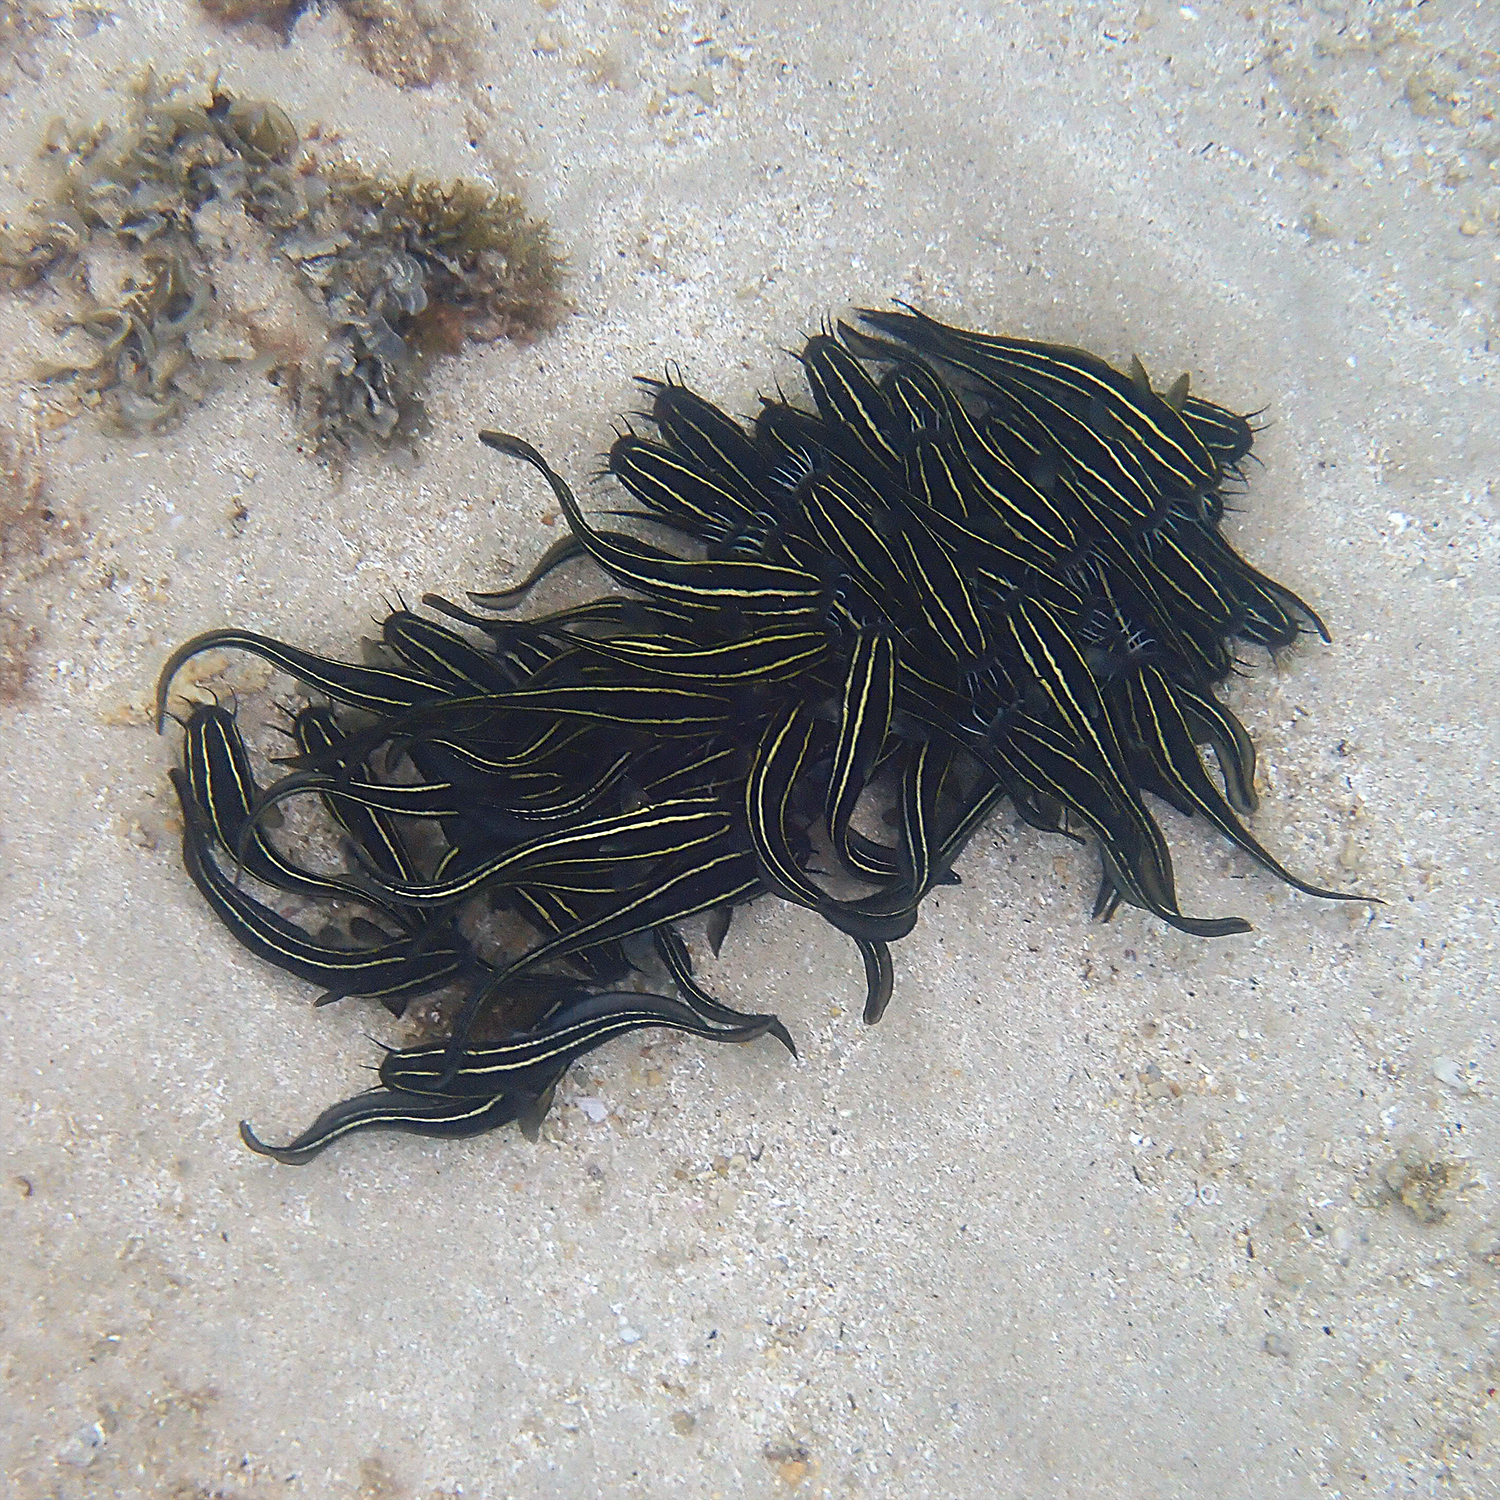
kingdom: Animalia
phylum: Chordata
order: Siluriformes
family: Plotosidae
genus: Plotosus
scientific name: Plotosus lineatus
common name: Striped eel catfish
